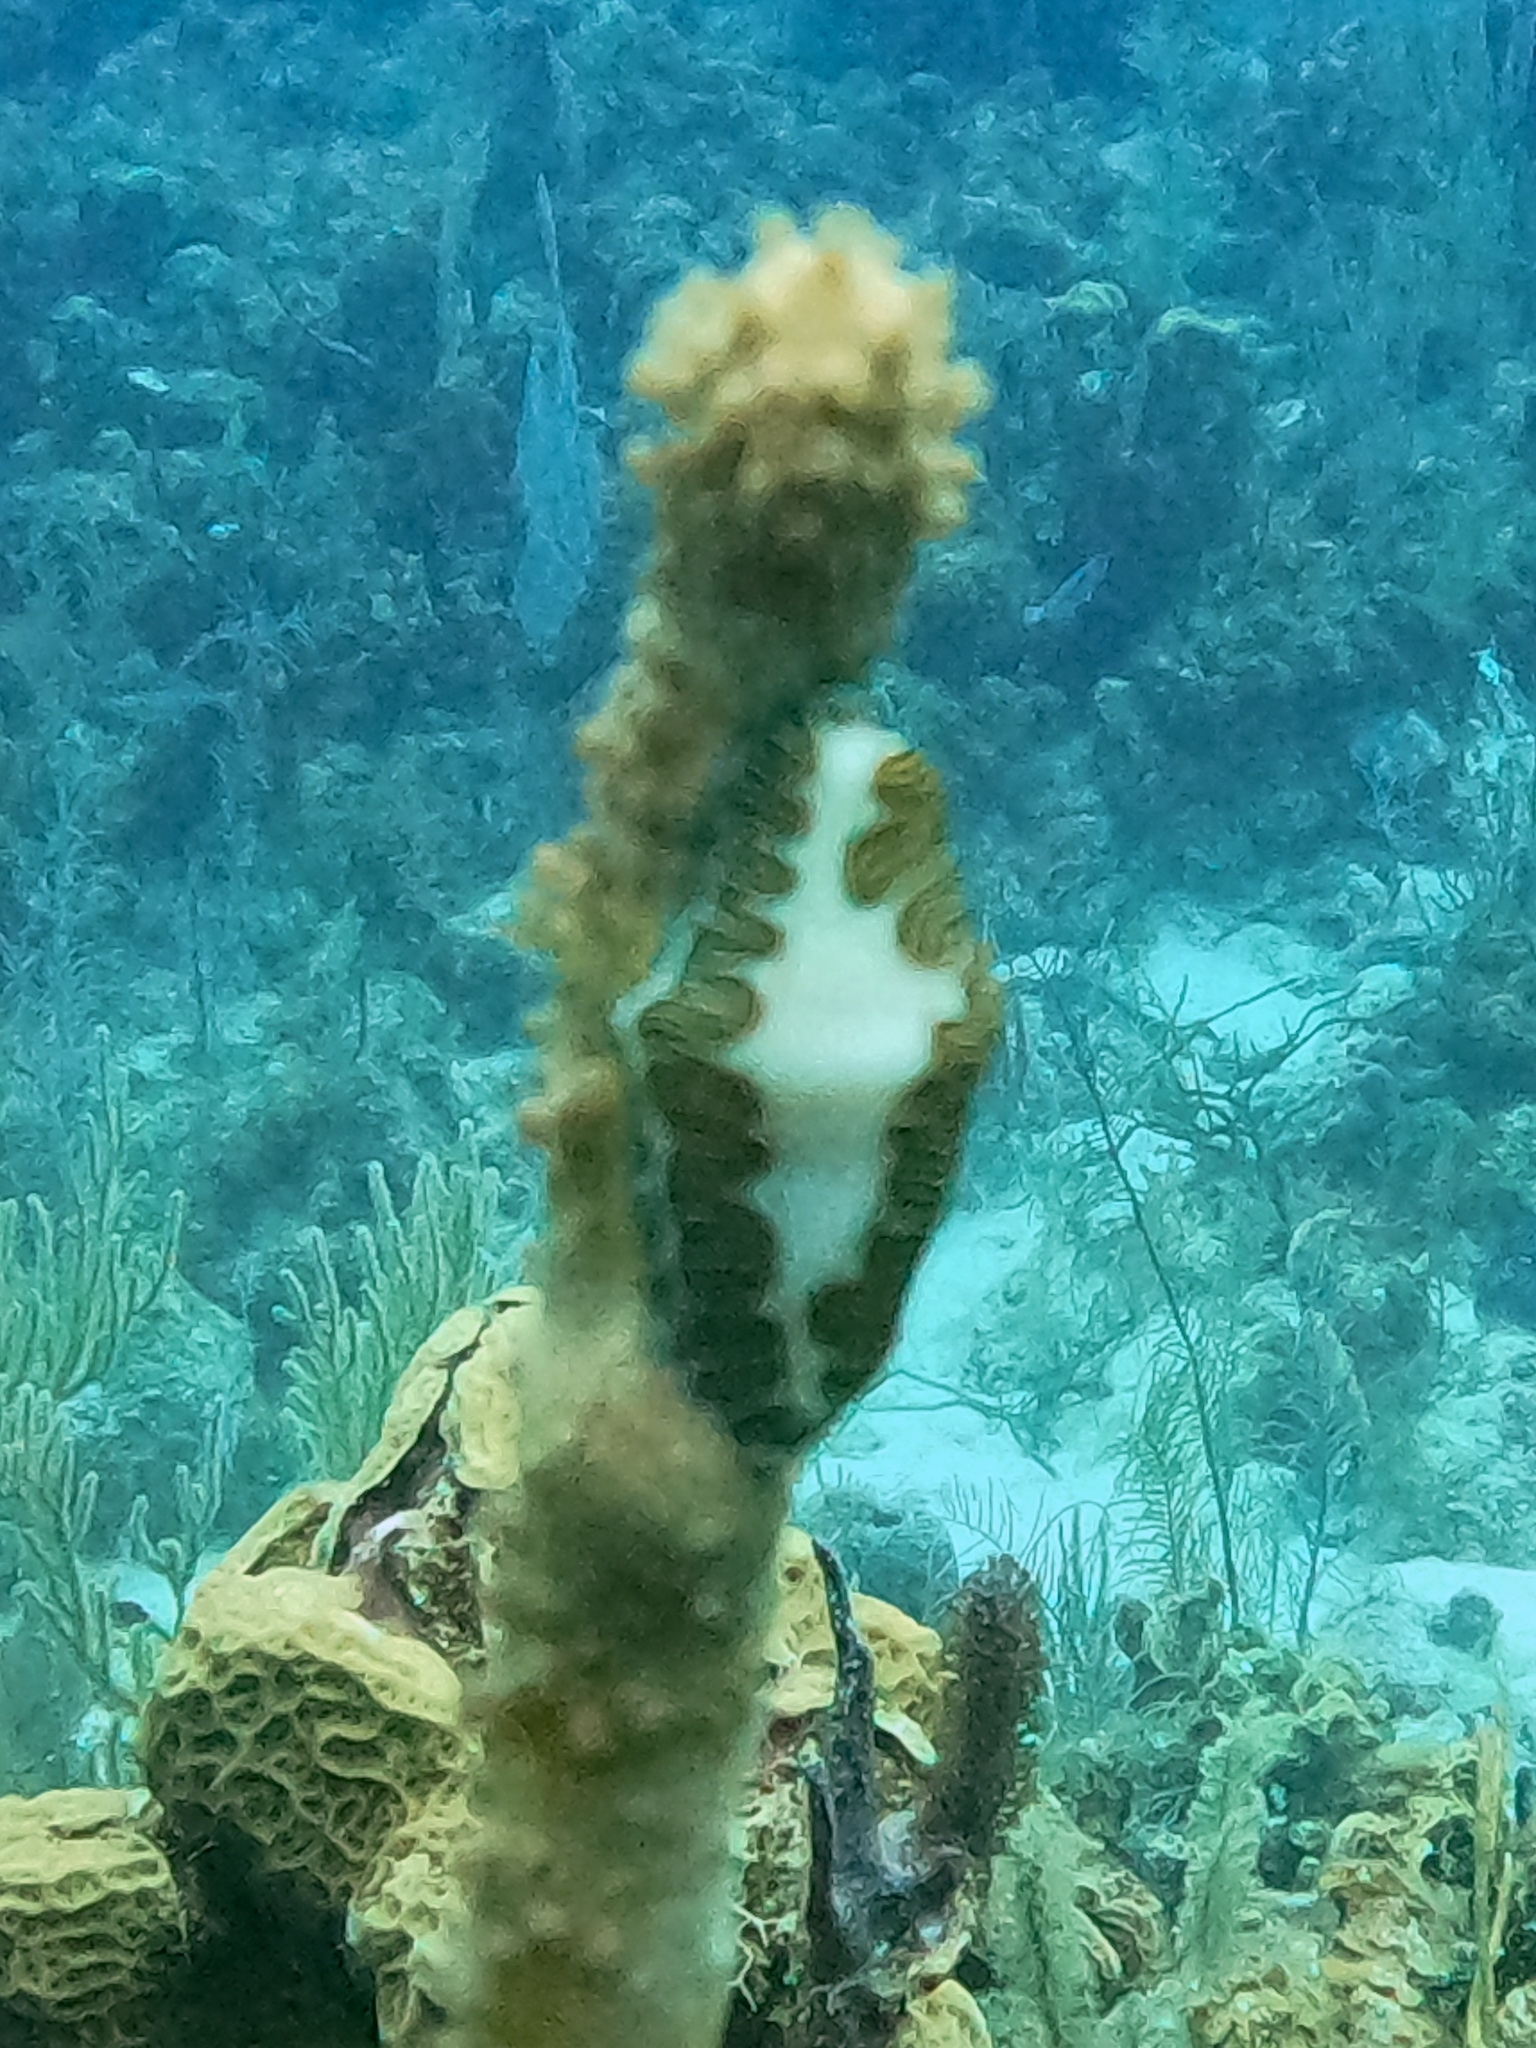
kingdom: Animalia
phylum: Mollusca
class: Gastropoda
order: Littorinimorpha
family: Ovulidae
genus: Cyphoma
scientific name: Cyphoma signatum
